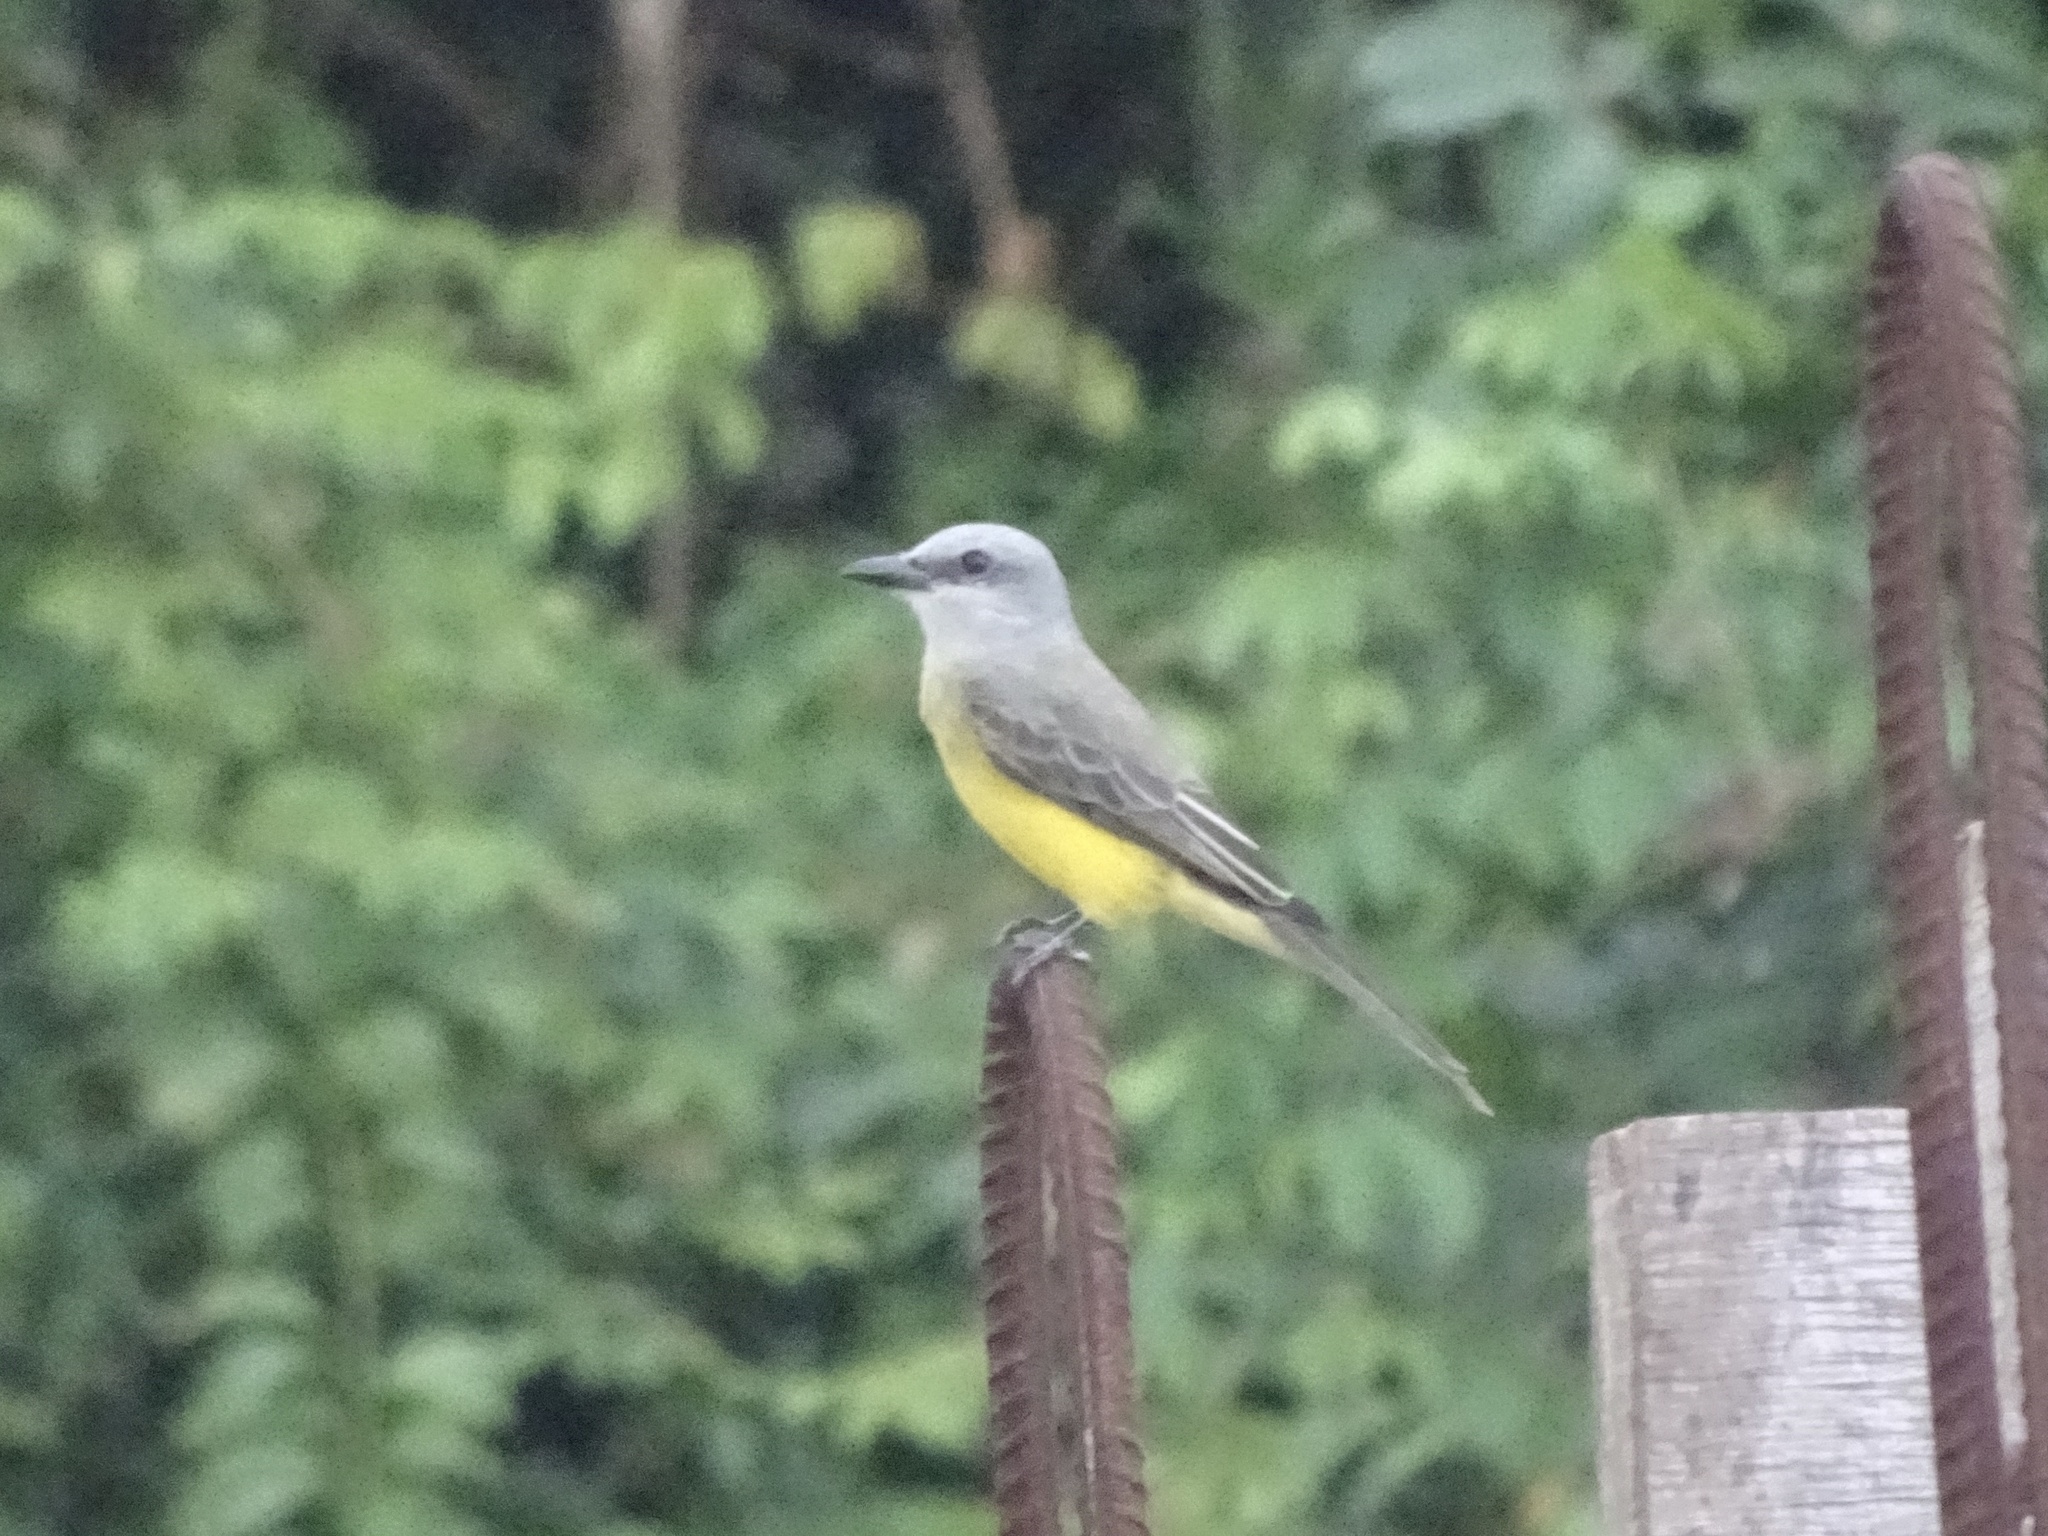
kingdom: Animalia
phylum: Chordata
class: Aves
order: Passeriformes
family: Tyrannidae
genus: Tyrannus
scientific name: Tyrannus melancholicus
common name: Tropical kingbird
